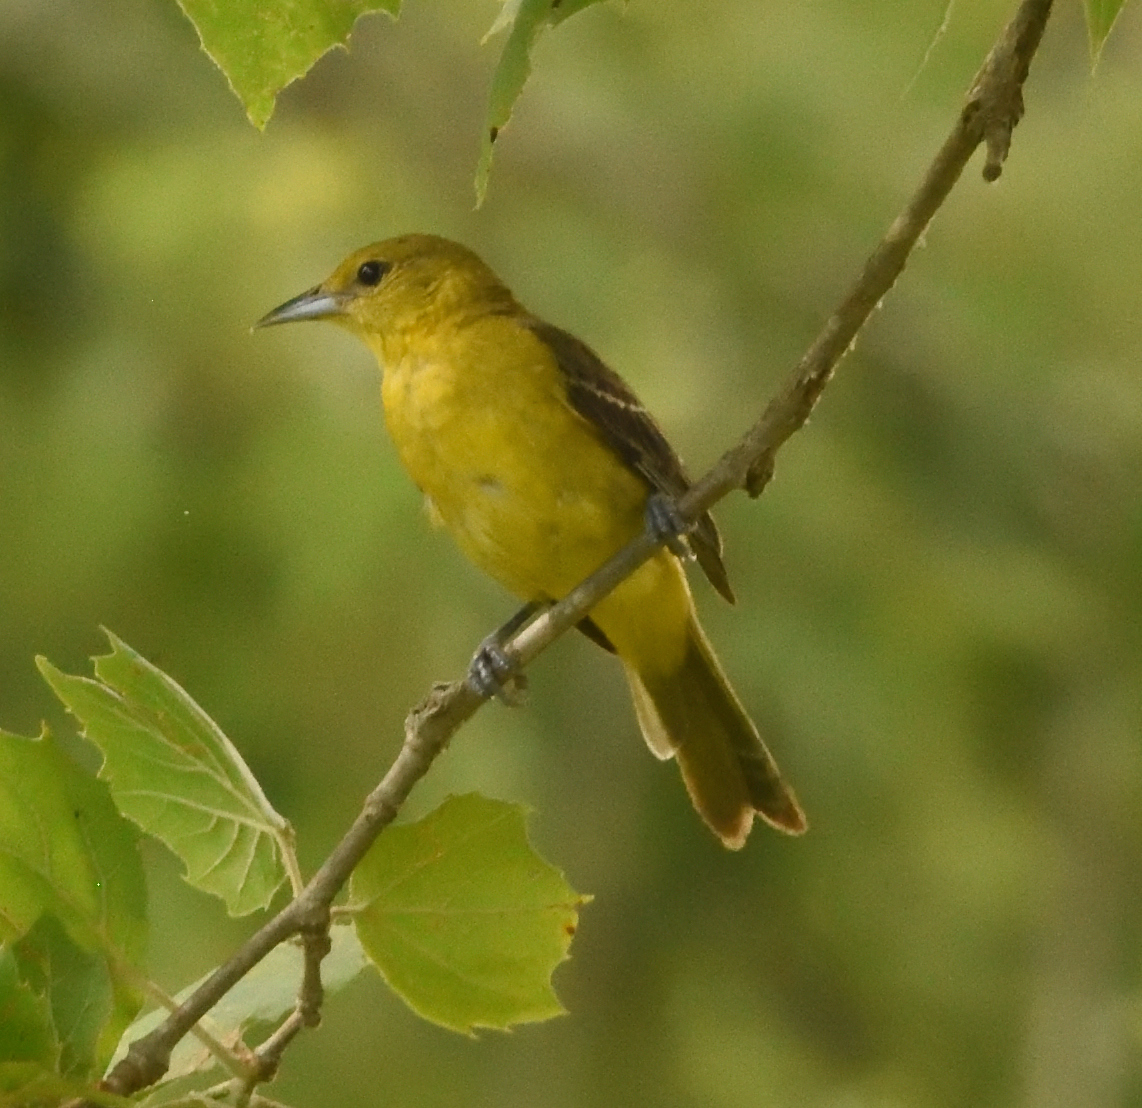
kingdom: Animalia
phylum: Chordata
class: Aves
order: Passeriformes
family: Icteridae
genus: Icterus
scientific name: Icterus spurius
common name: Orchard oriole
